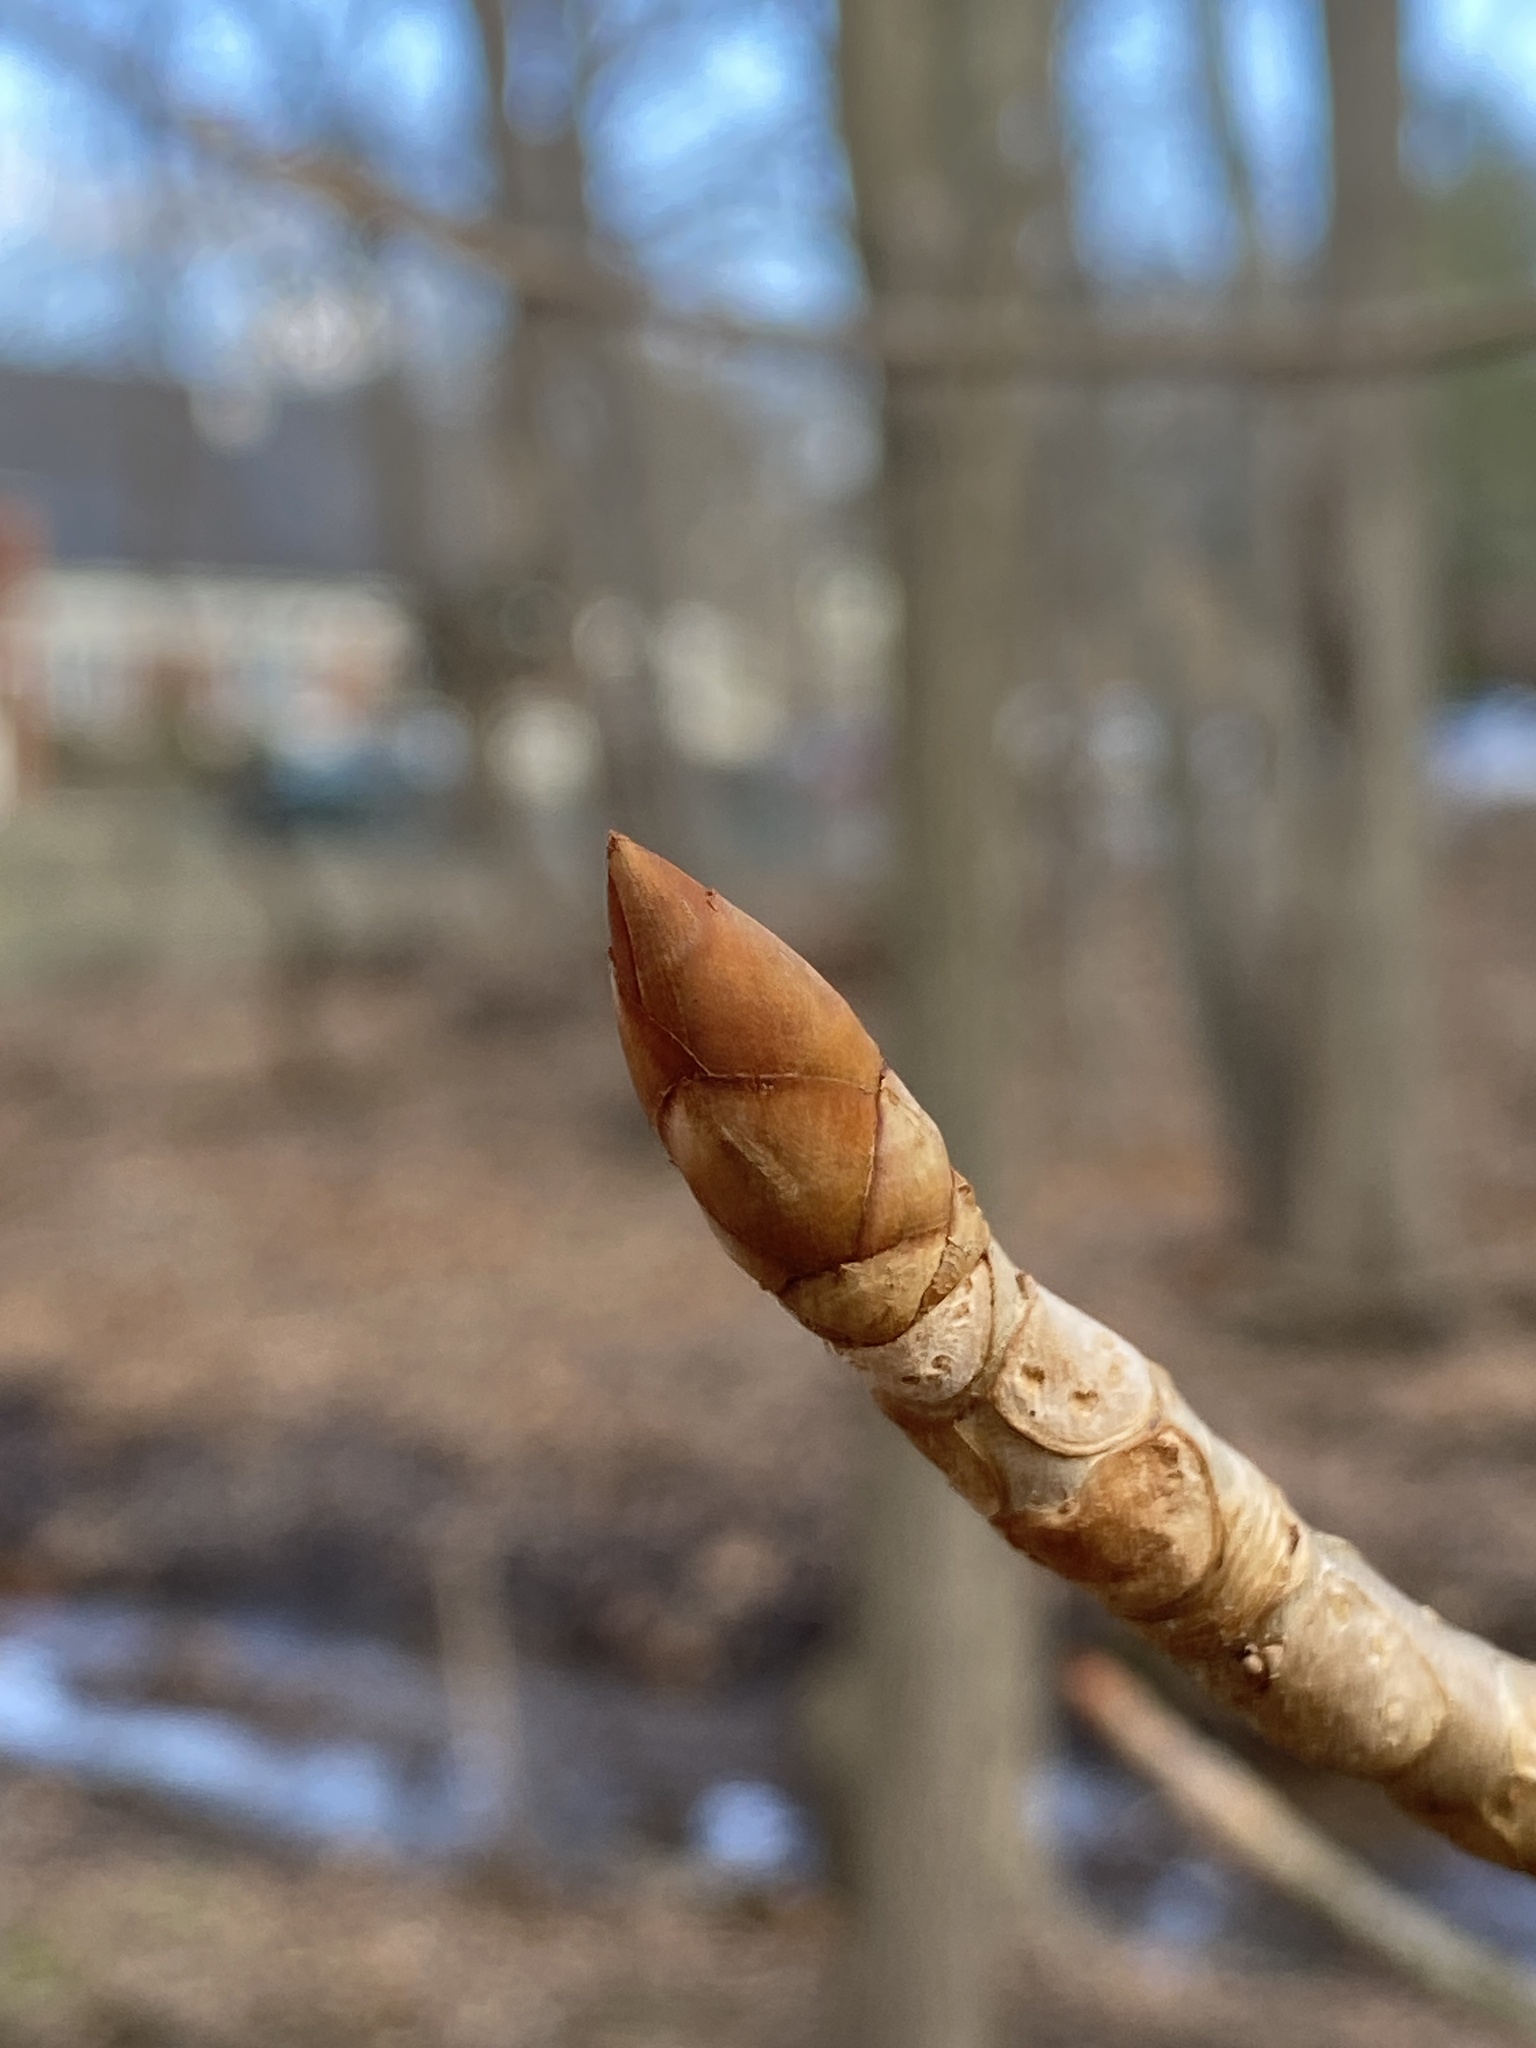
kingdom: Plantae
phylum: Tracheophyta
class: Magnoliopsida
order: Sapindales
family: Sapindaceae
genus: Aesculus
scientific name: Aesculus flava
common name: Yellow buckeye
